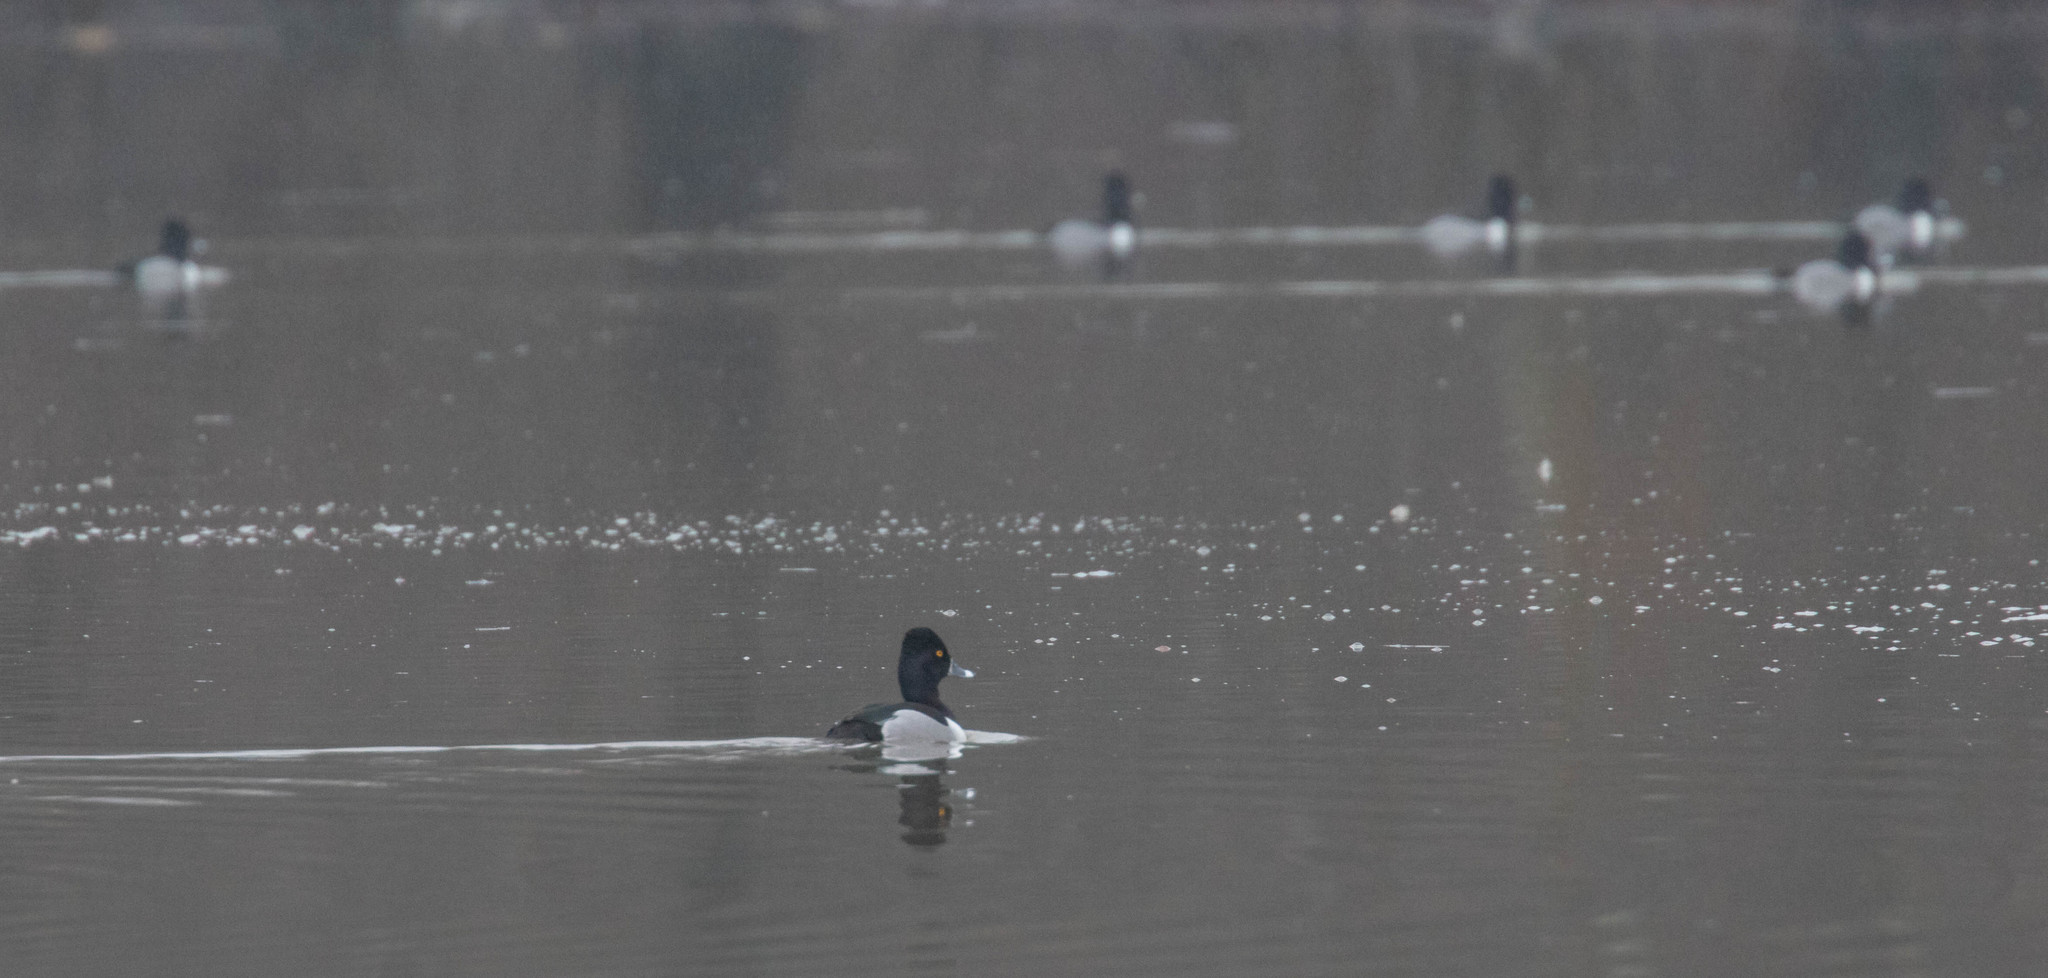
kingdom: Animalia
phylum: Chordata
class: Aves
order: Anseriformes
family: Anatidae
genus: Aythya
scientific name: Aythya collaris
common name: Ring-necked duck
